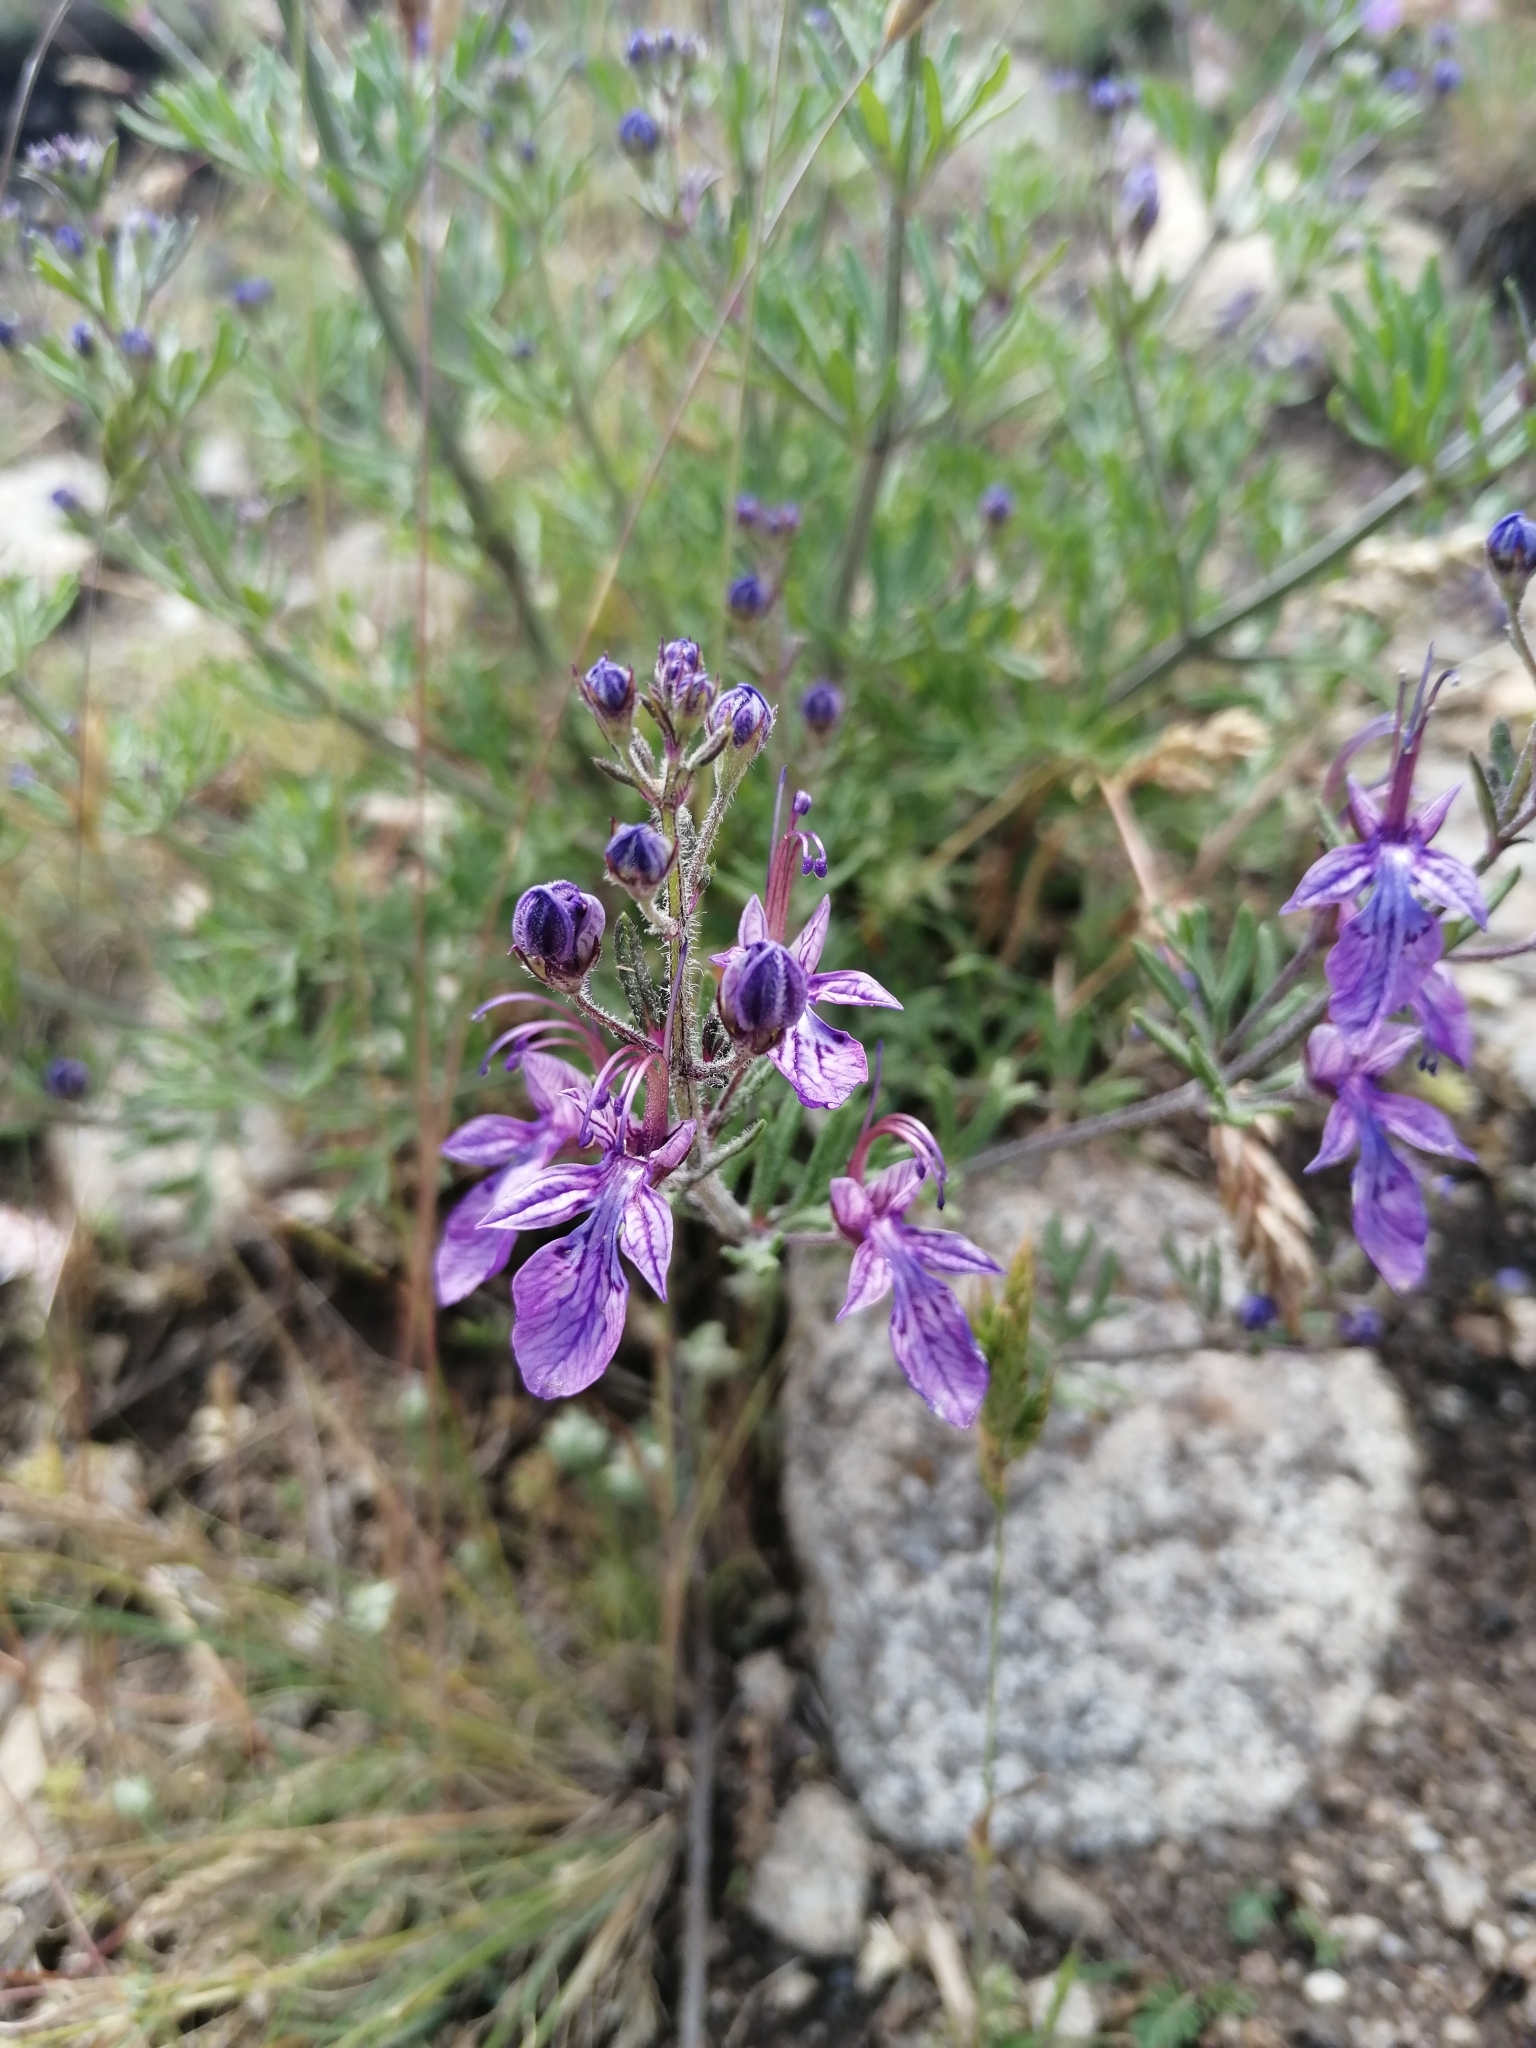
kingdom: Plantae
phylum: Tracheophyta
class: Magnoliopsida
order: Lamiales
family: Lamiaceae
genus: Teucrium
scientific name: Teucrium orientale
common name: Oriental germander
